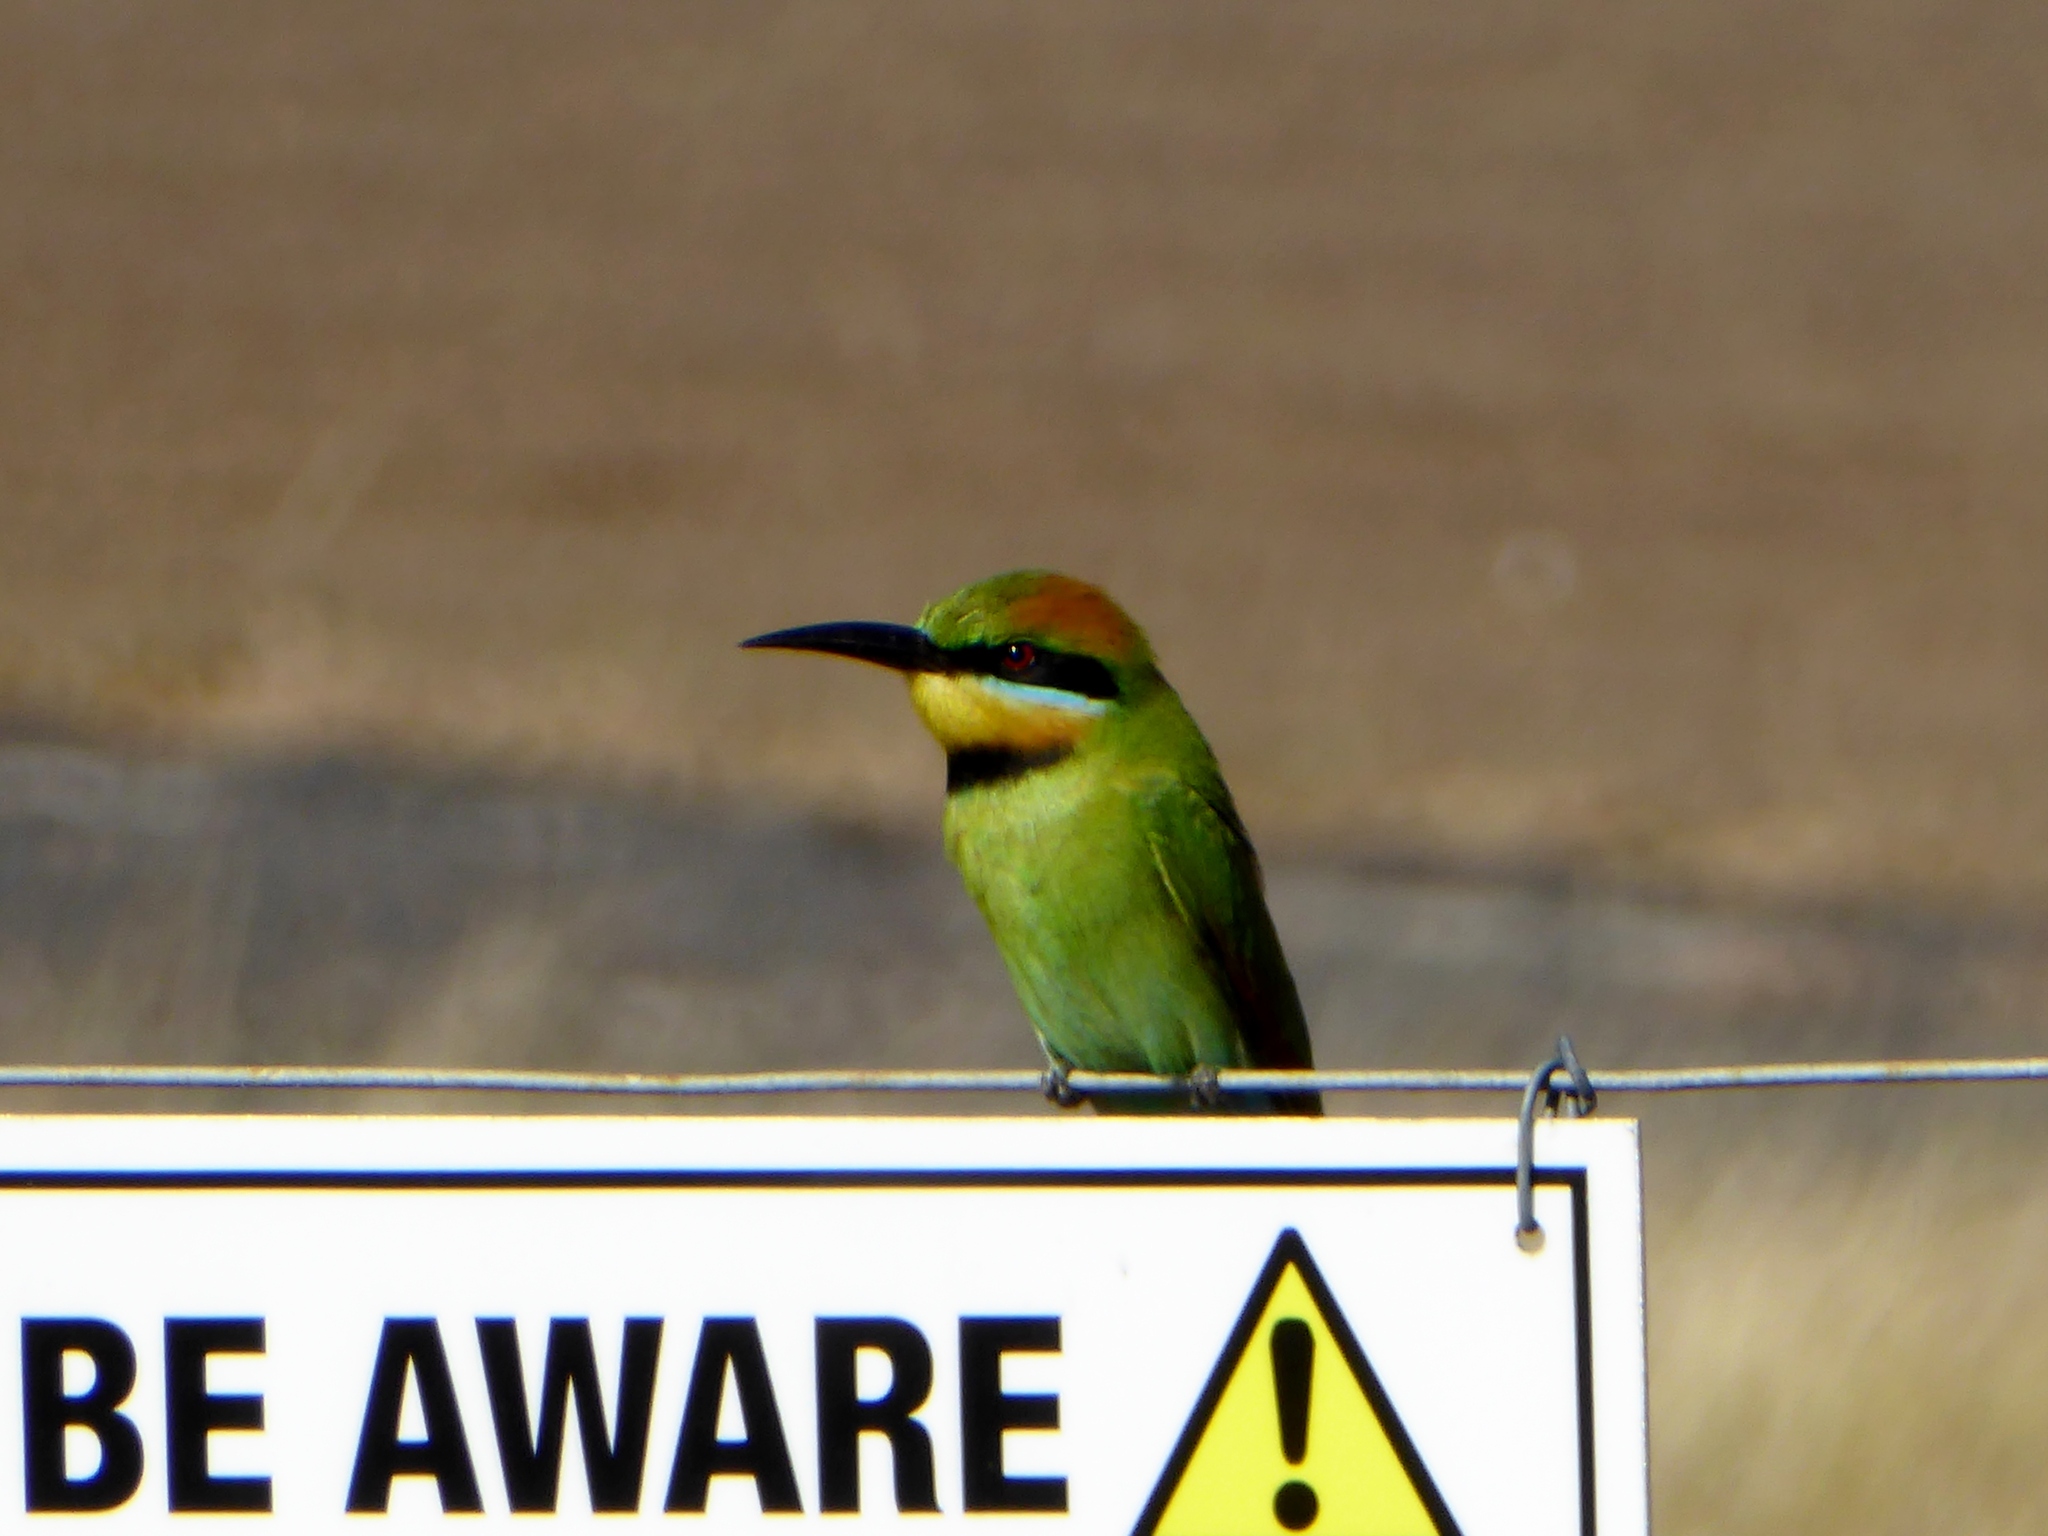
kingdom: Animalia
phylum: Chordata
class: Aves
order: Coraciiformes
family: Meropidae
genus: Merops
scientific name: Merops ornatus
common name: Rainbow bee-eater
